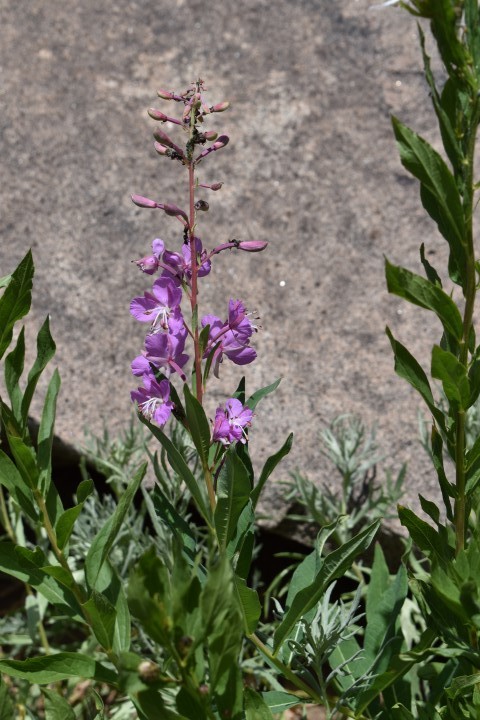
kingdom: Plantae
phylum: Tracheophyta
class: Magnoliopsida
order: Myrtales
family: Onagraceae
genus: Chamaenerion
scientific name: Chamaenerion angustifolium
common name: Fireweed
